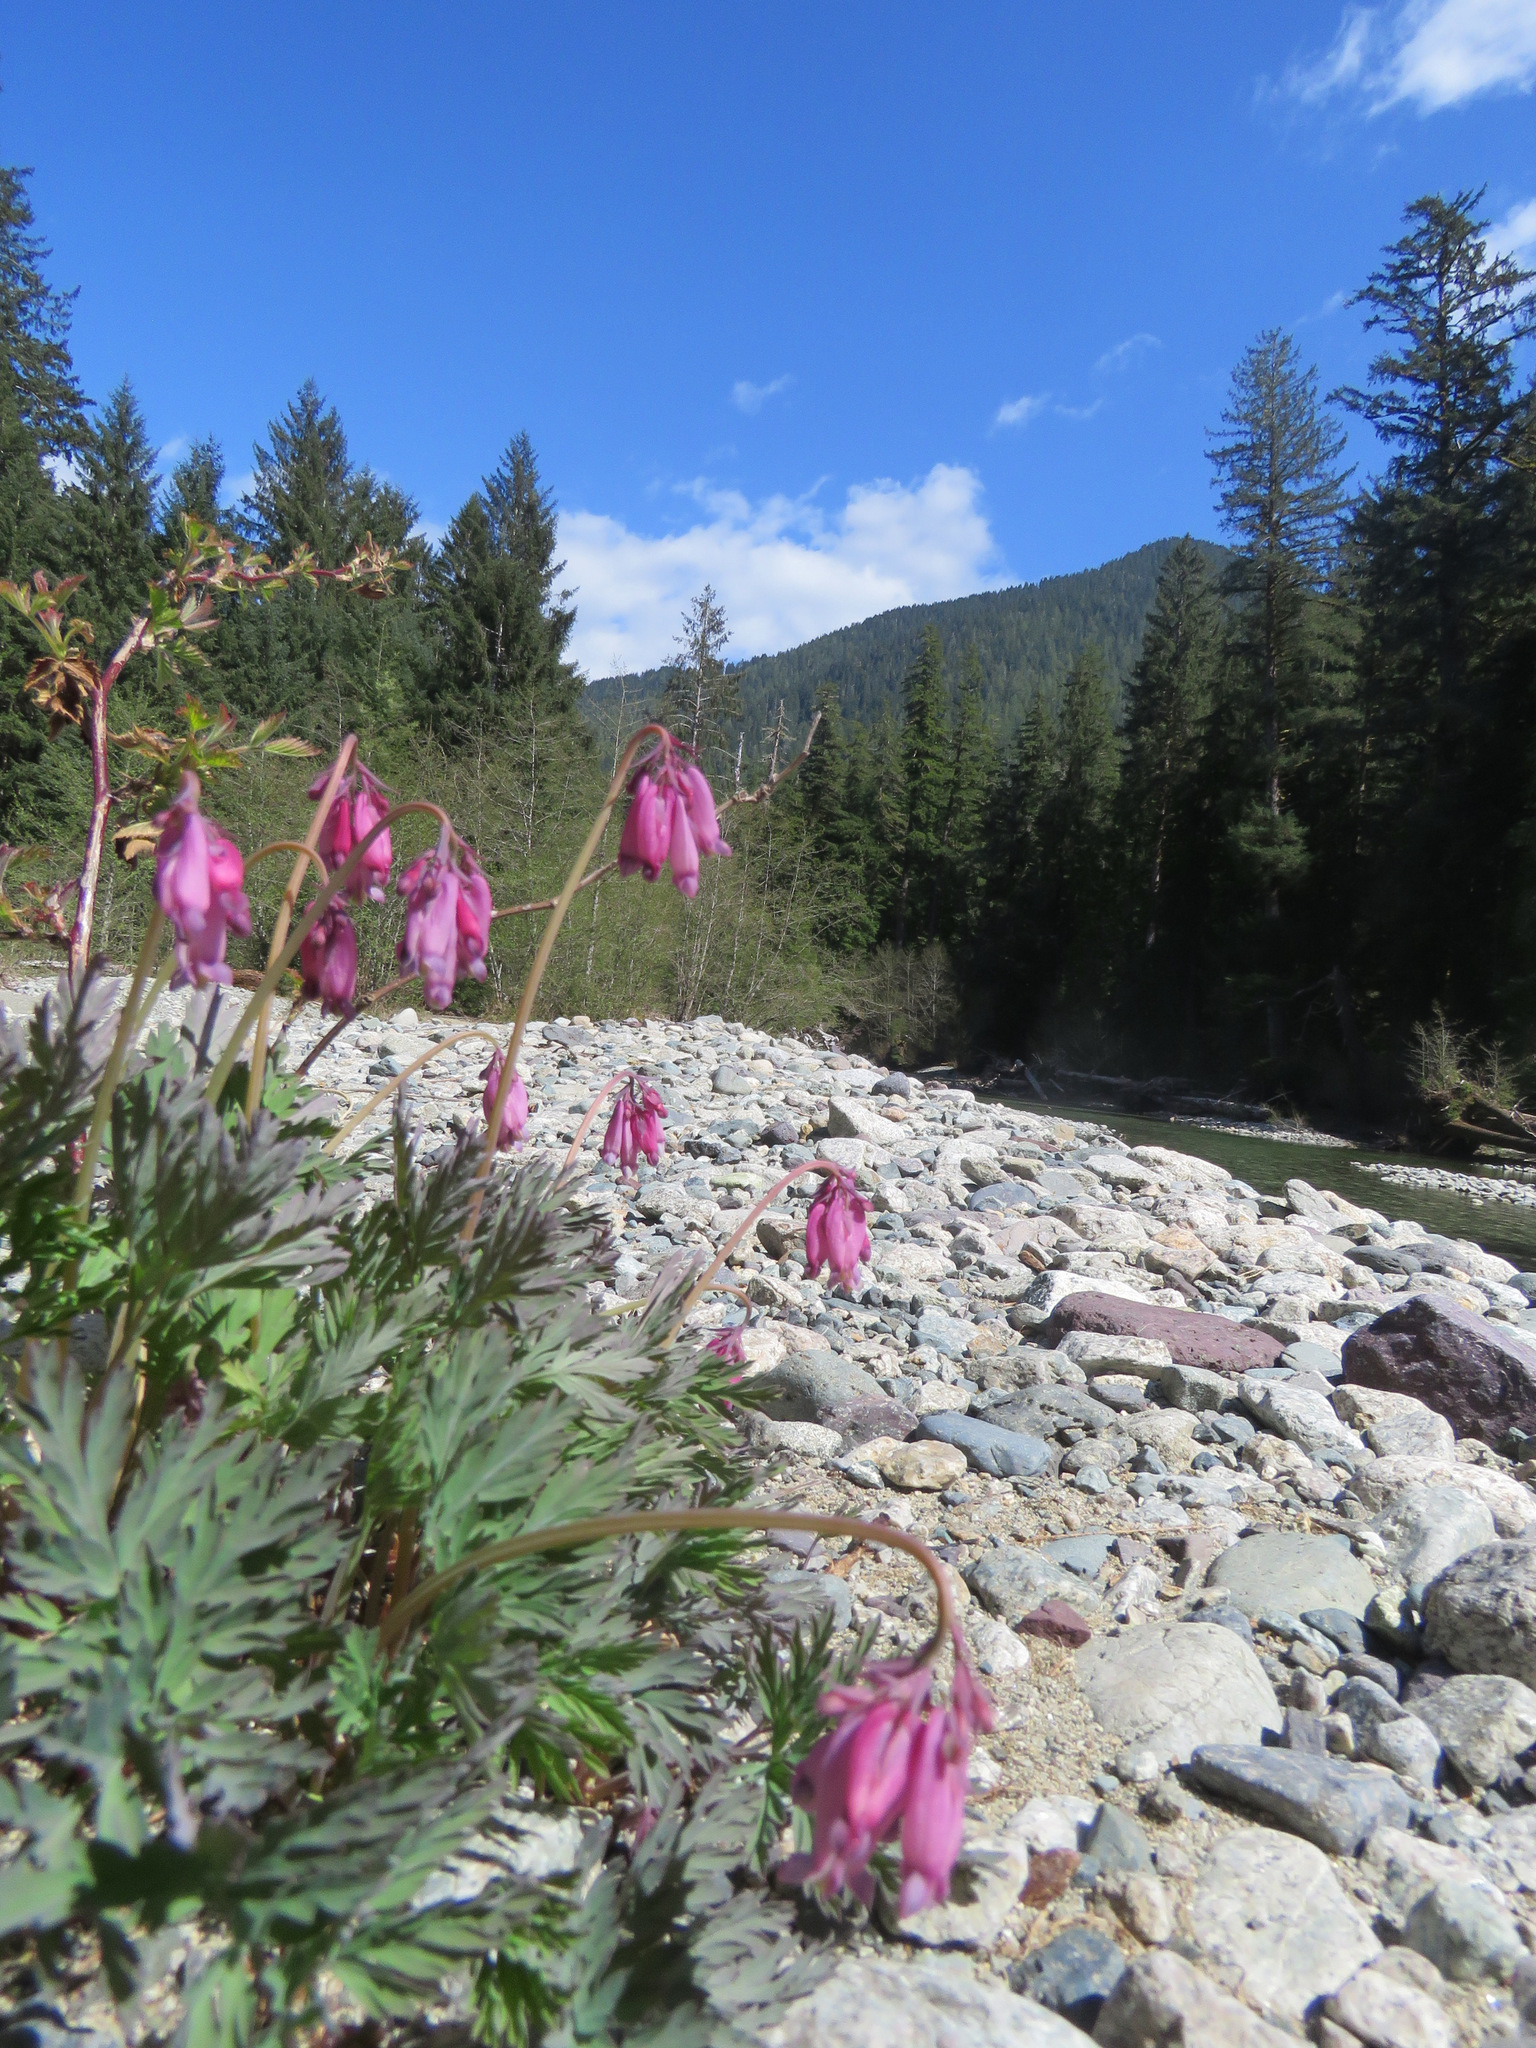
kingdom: Plantae
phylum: Tracheophyta
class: Magnoliopsida
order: Ranunculales
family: Papaveraceae
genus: Dicentra
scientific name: Dicentra formosa
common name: Bleeding-heart
